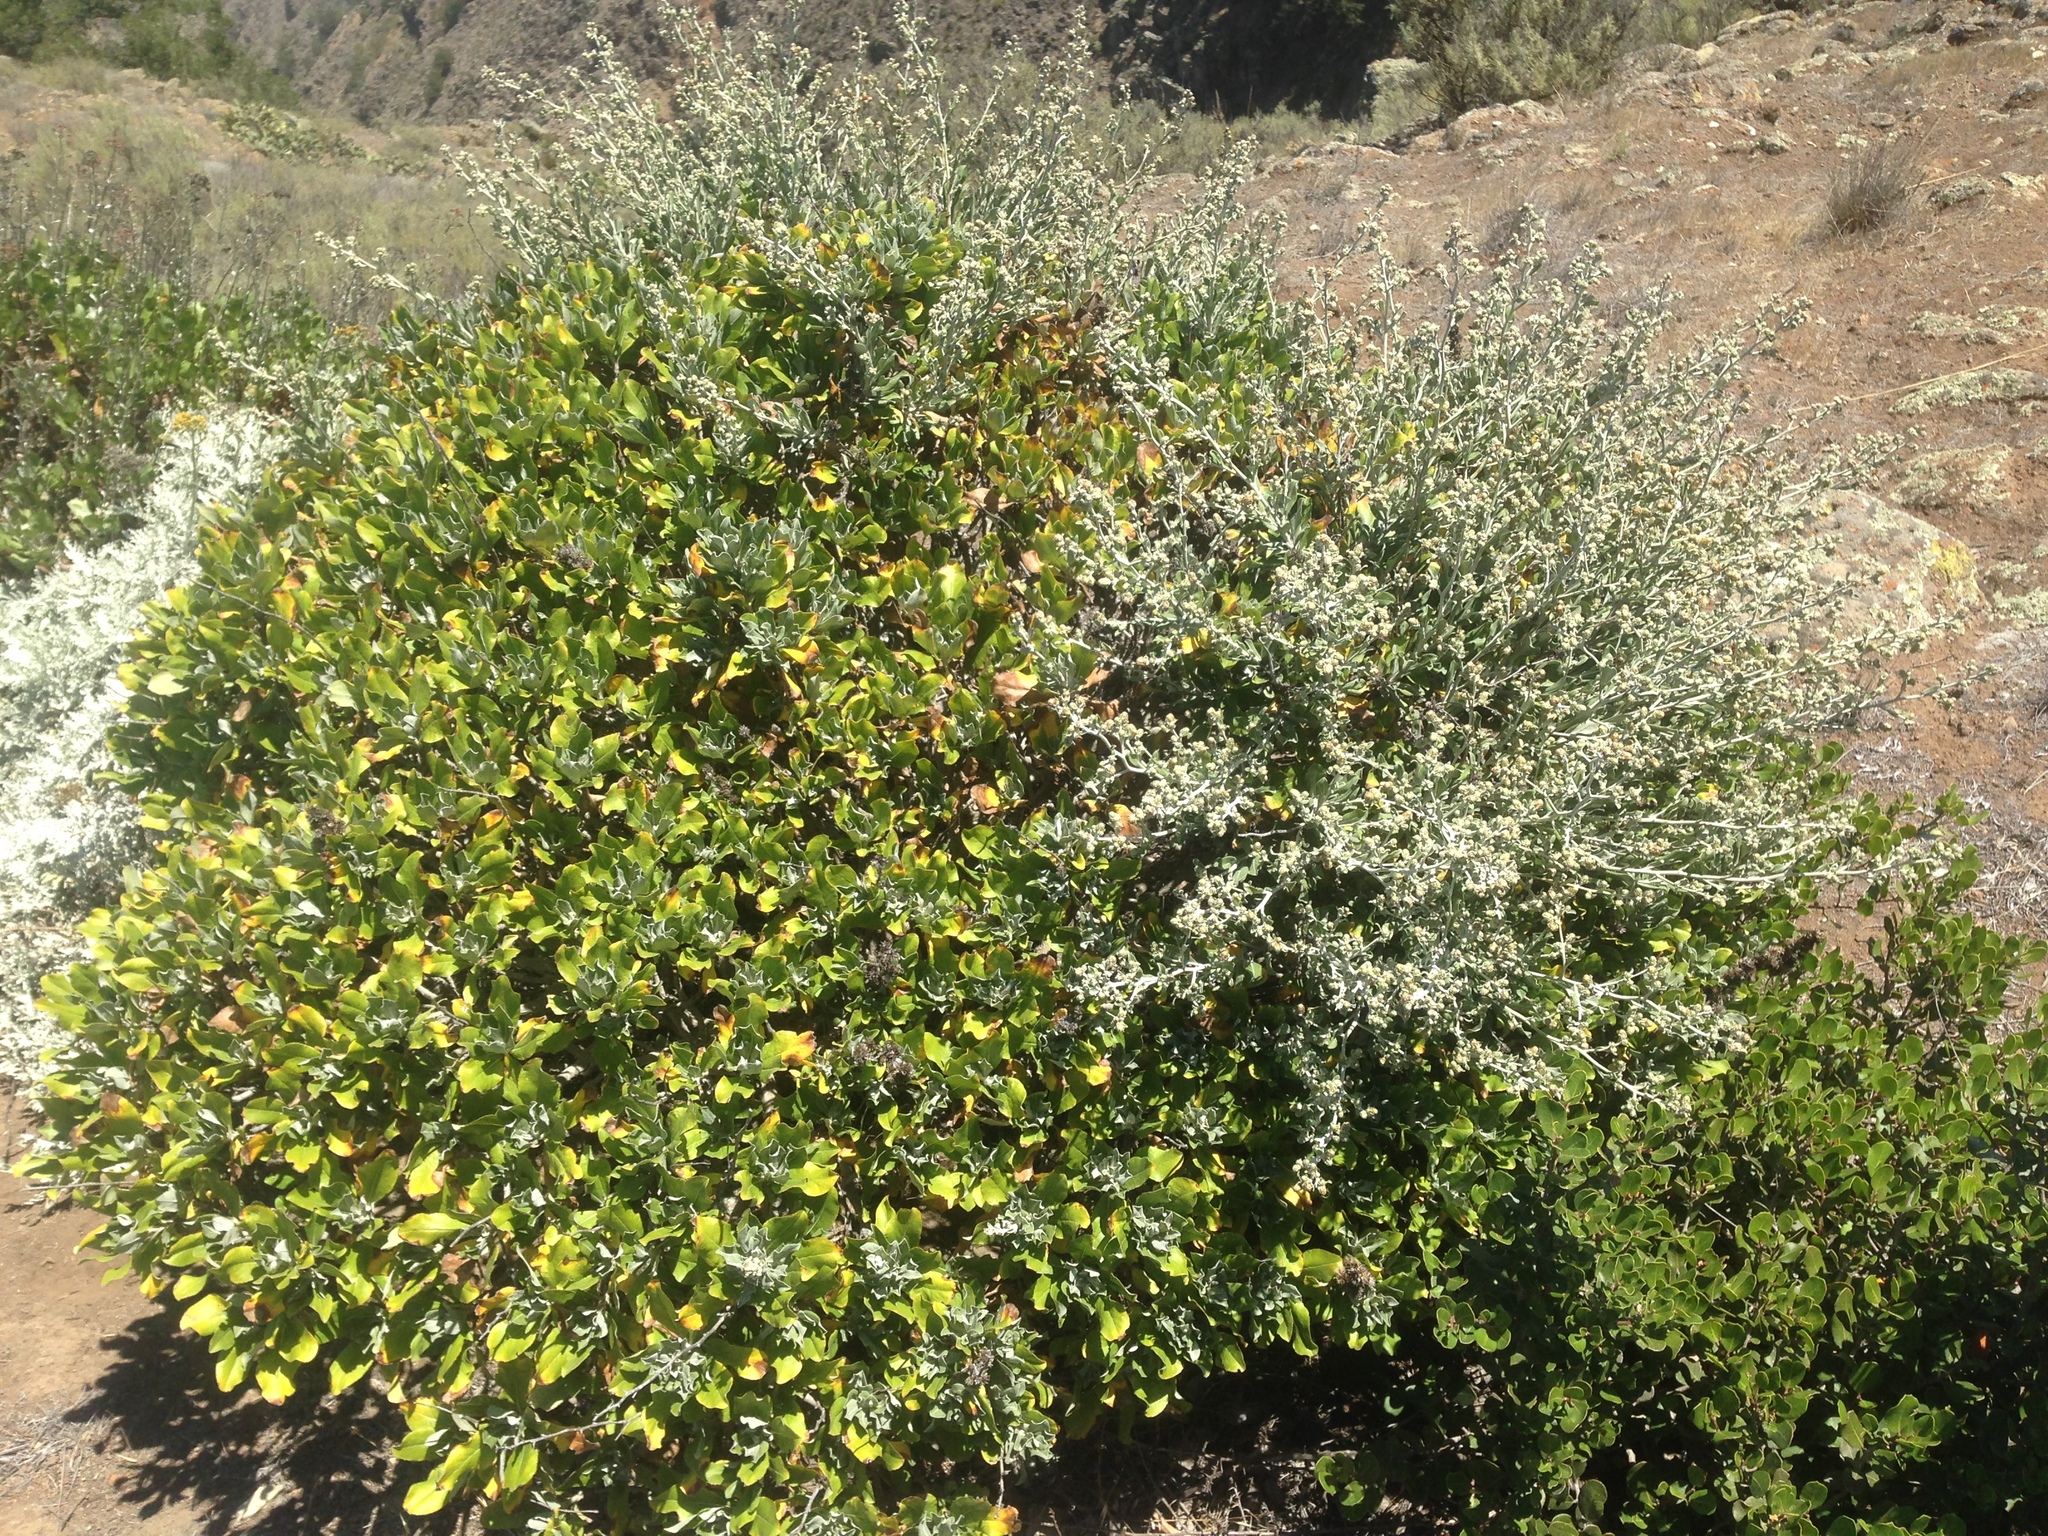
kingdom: Plantae
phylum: Tracheophyta
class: Magnoliopsida
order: Asterales
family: Asteraceae
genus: Munzothamnus
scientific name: Munzothamnus blairii
